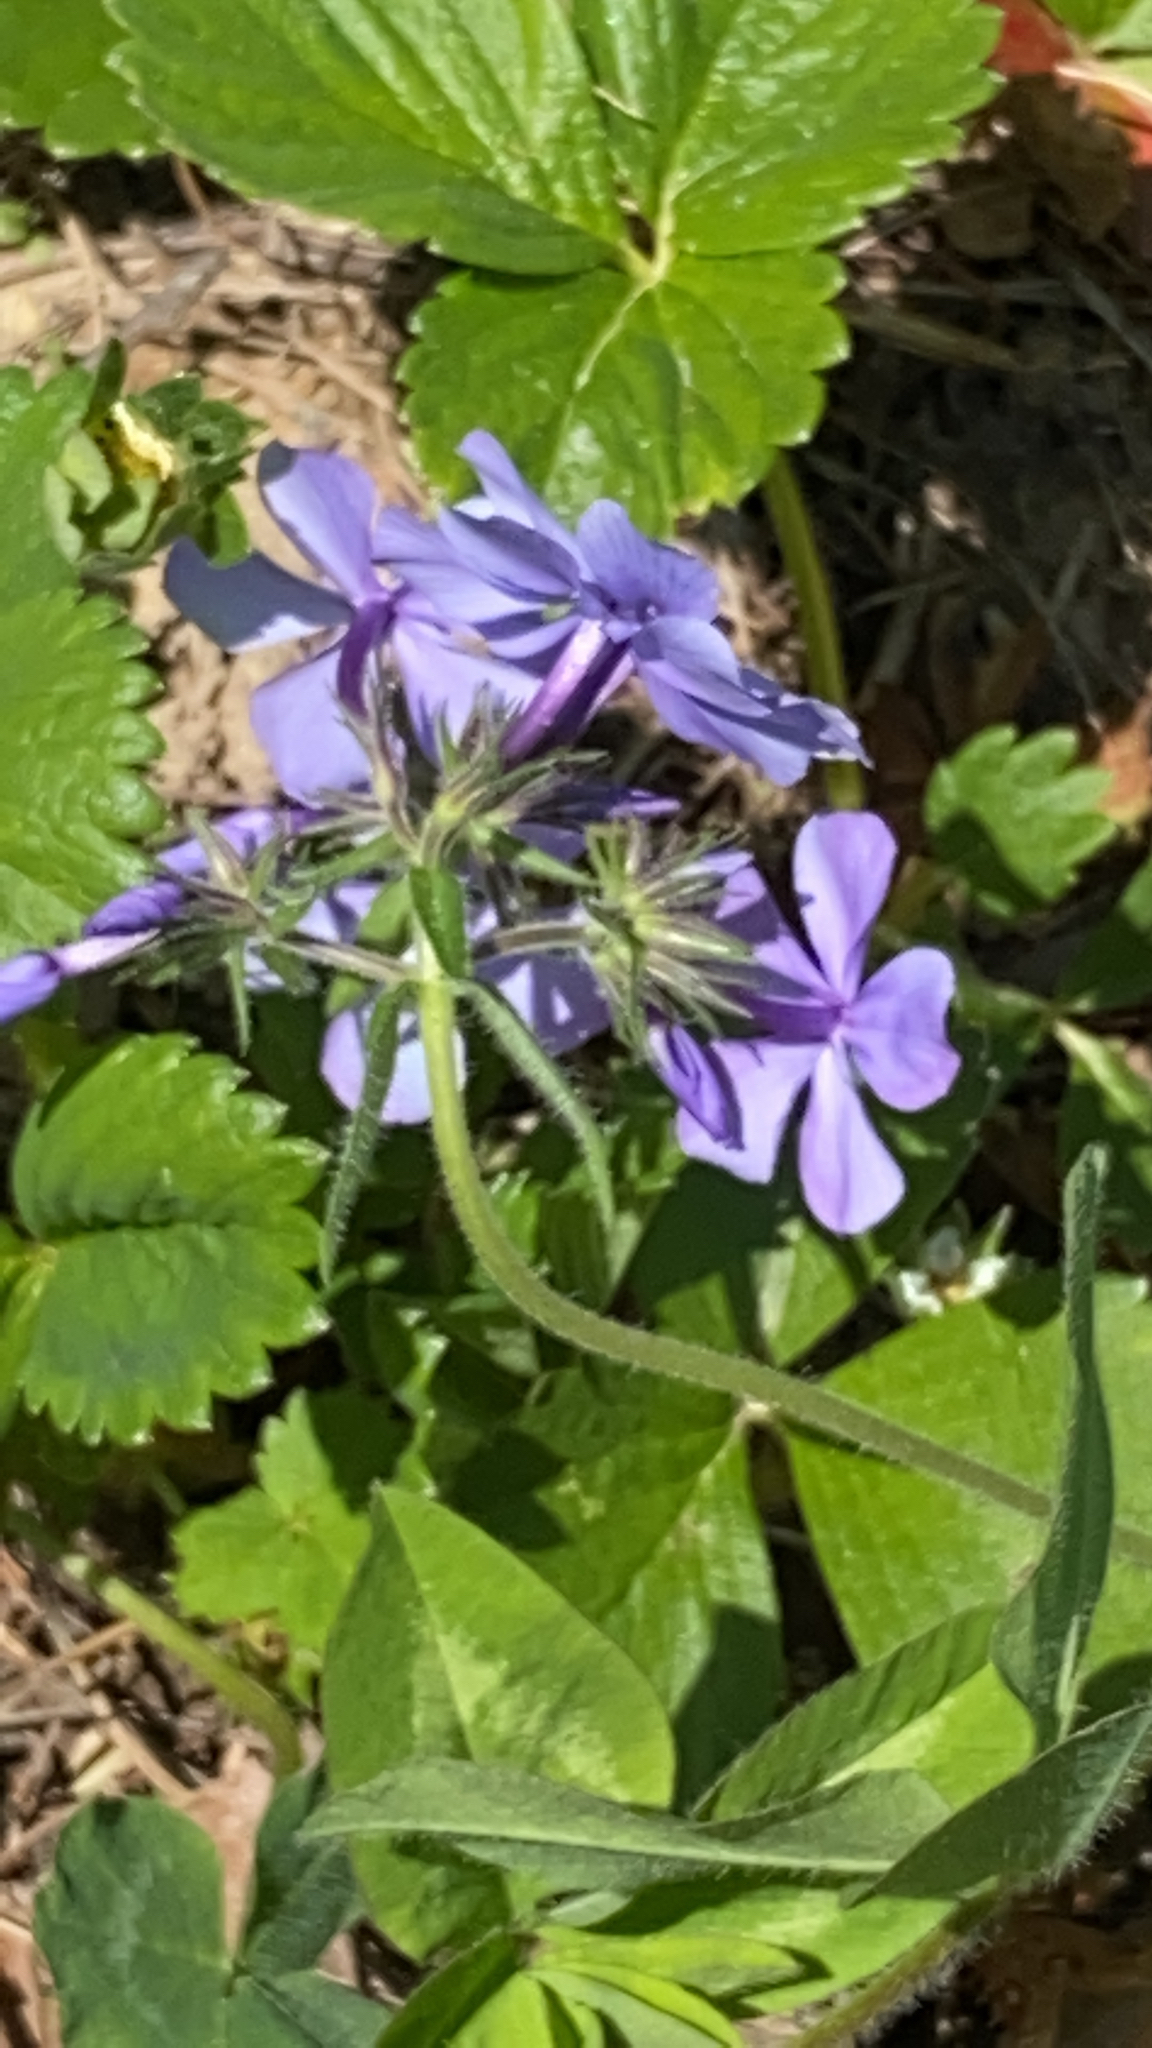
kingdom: Plantae
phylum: Tracheophyta
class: Magnoliopsida
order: Ericales
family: Polemoniaceae
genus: Phlox
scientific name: Phlox divaricata
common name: Blue phlox
